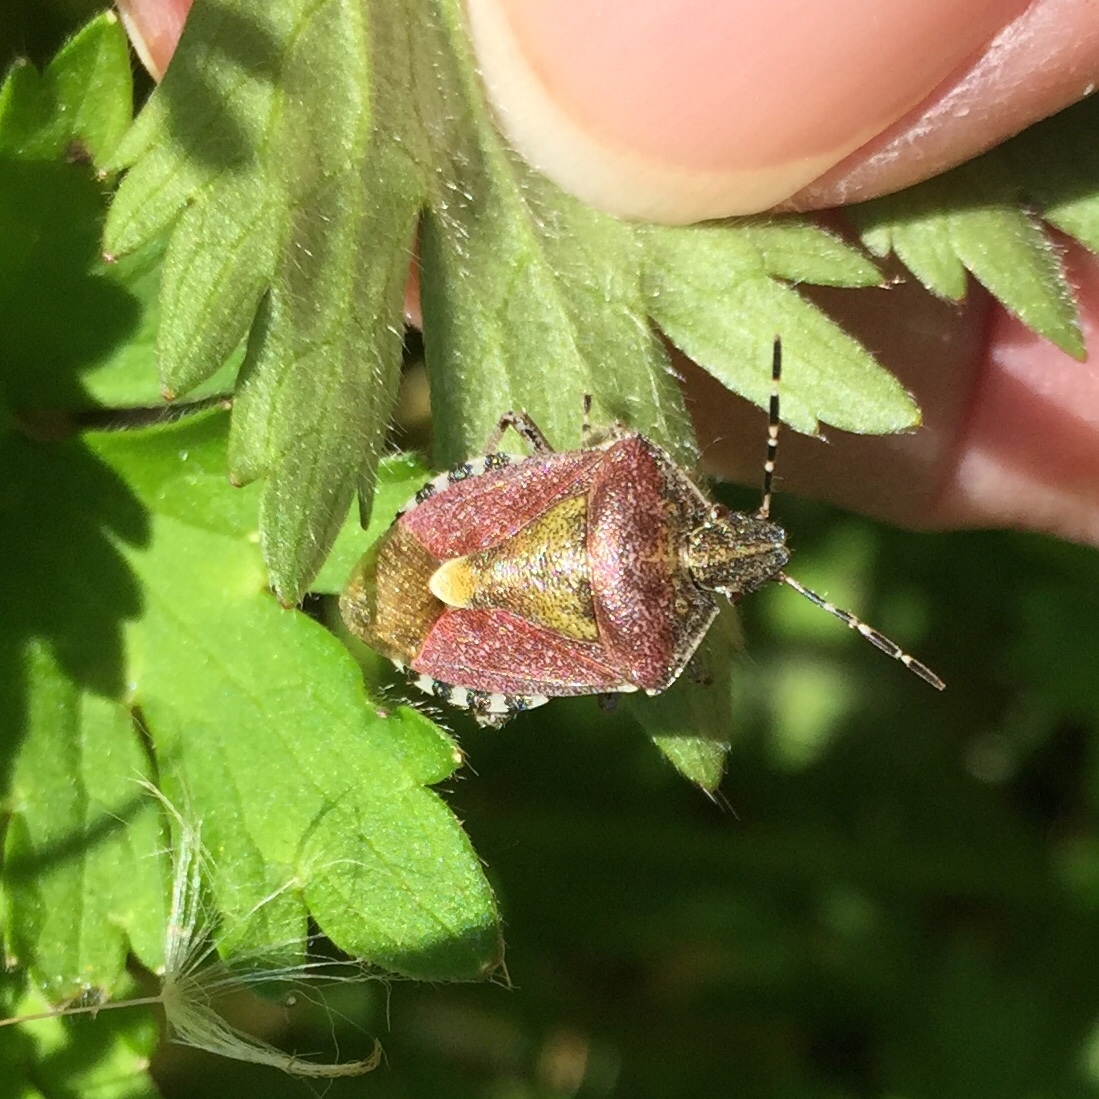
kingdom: Animalia
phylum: Arthropoda
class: Insecta
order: Hemiptera
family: Pentatomidae
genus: Dolycoris
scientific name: Dolycoris baccarum
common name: Sloe bug
